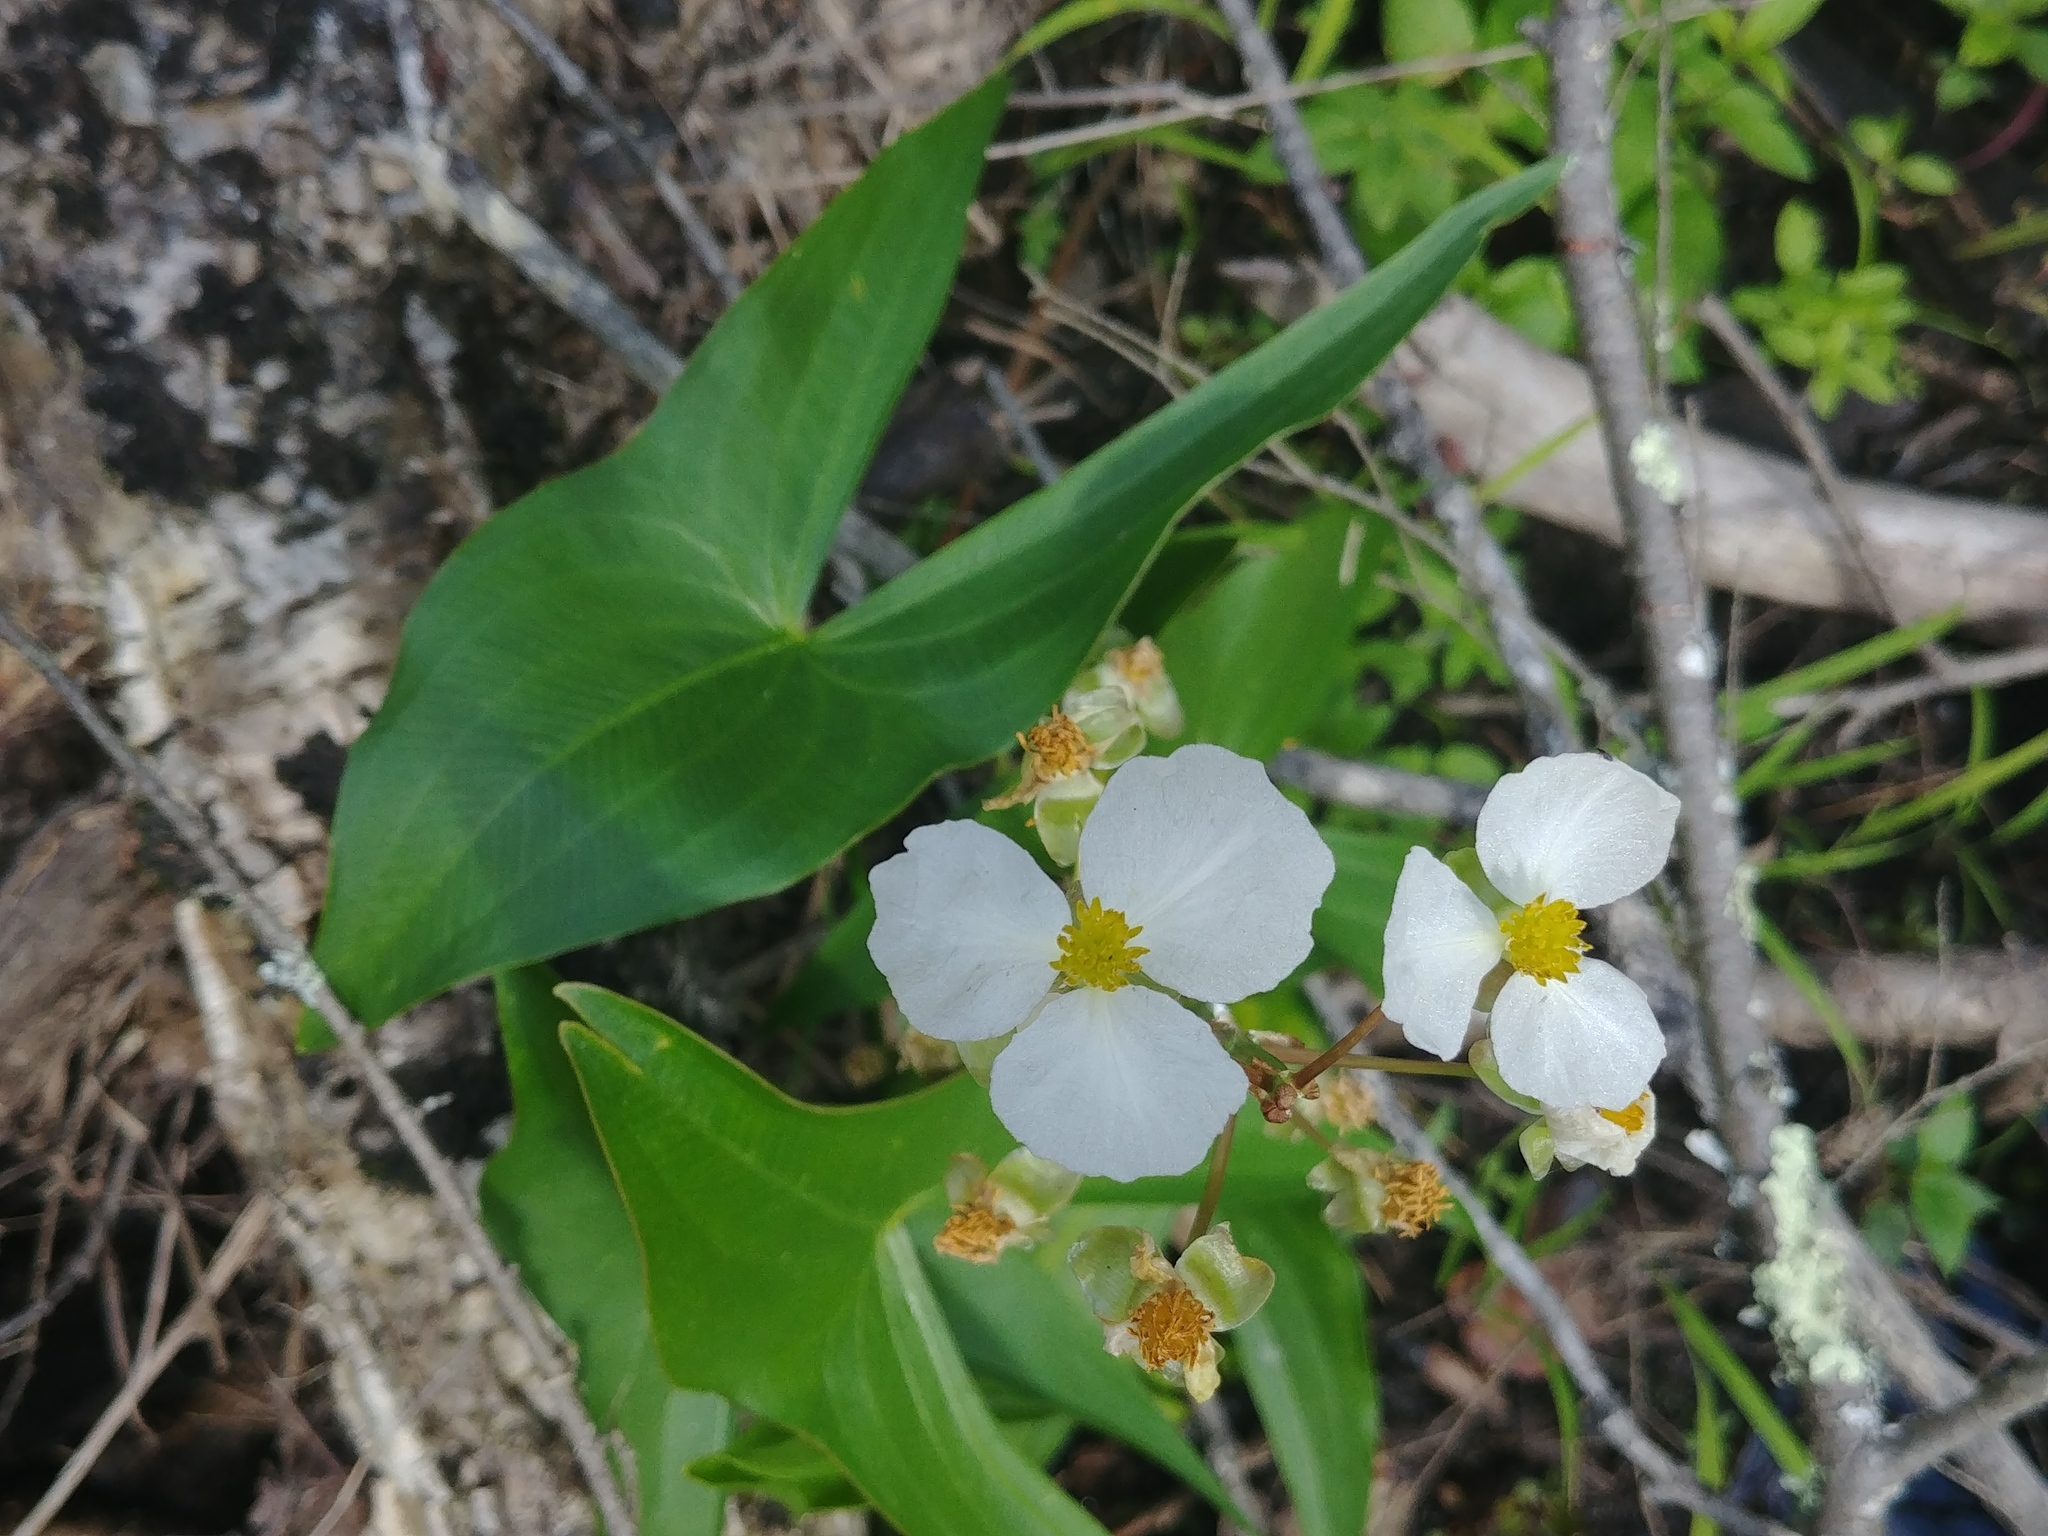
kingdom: Plantae
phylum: Tracheophyta
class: Liliopsida
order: Alismatales
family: Alismataceae
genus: Sagittaria
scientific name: Sagittaria latifolia
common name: Duck-potato
